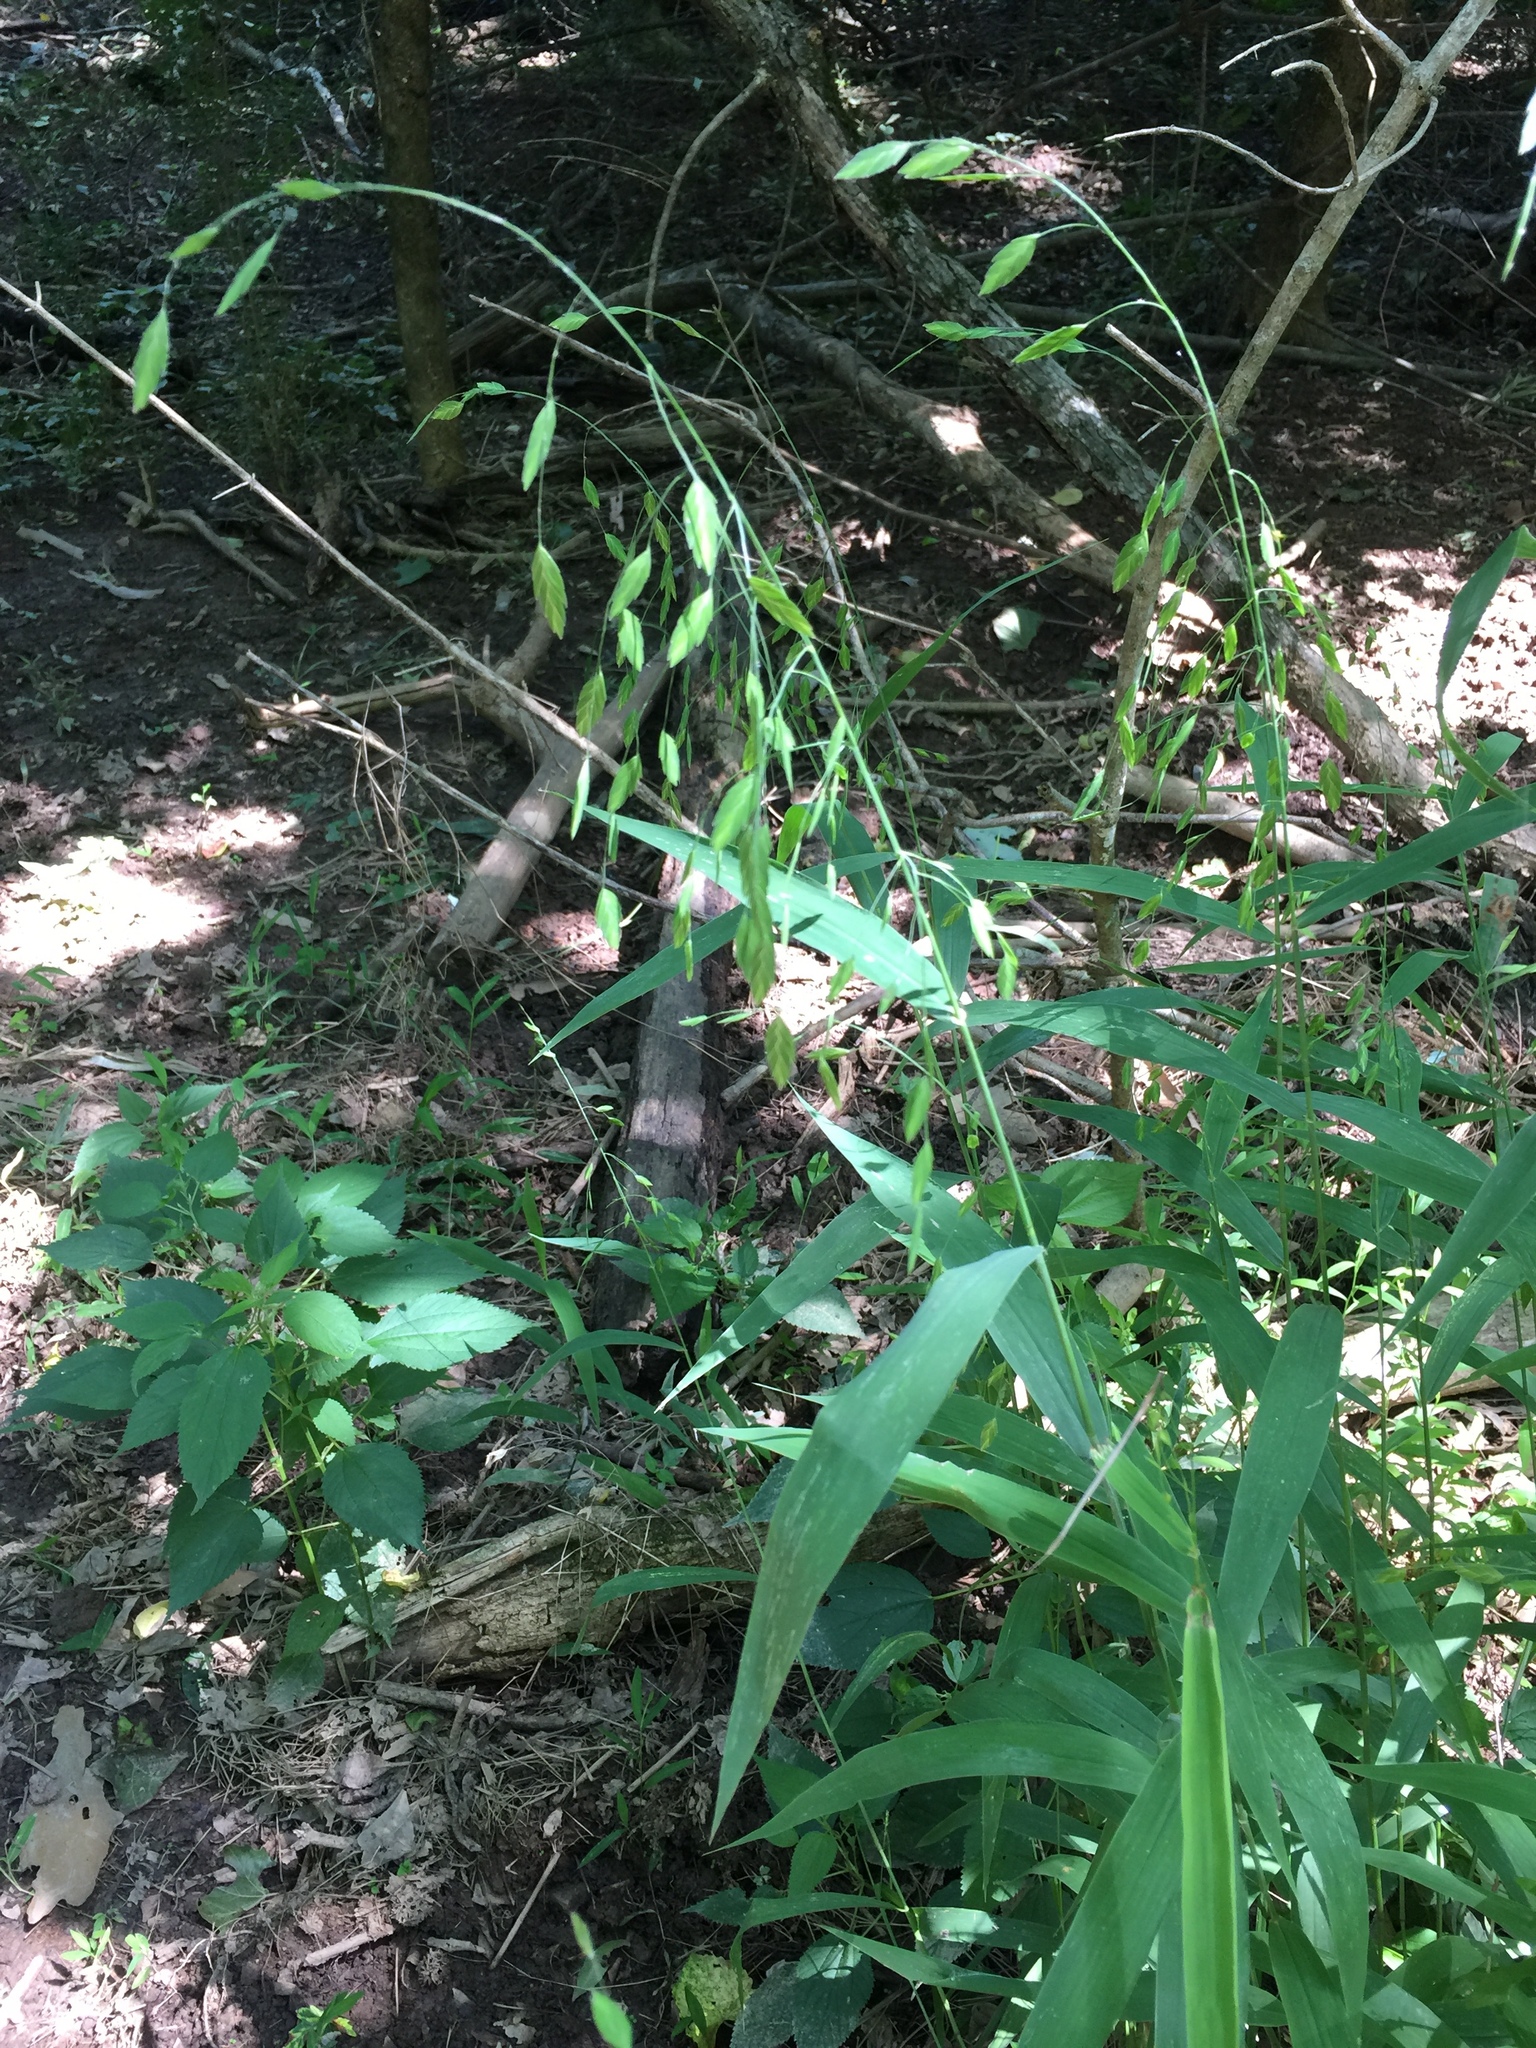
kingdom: Plantae
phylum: Tracheophyta
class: Liliopsida
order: Poales
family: Poaceae
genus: Chasmanthium
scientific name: Chasmanthium latifolium
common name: Broad-leaved chasmanthium
